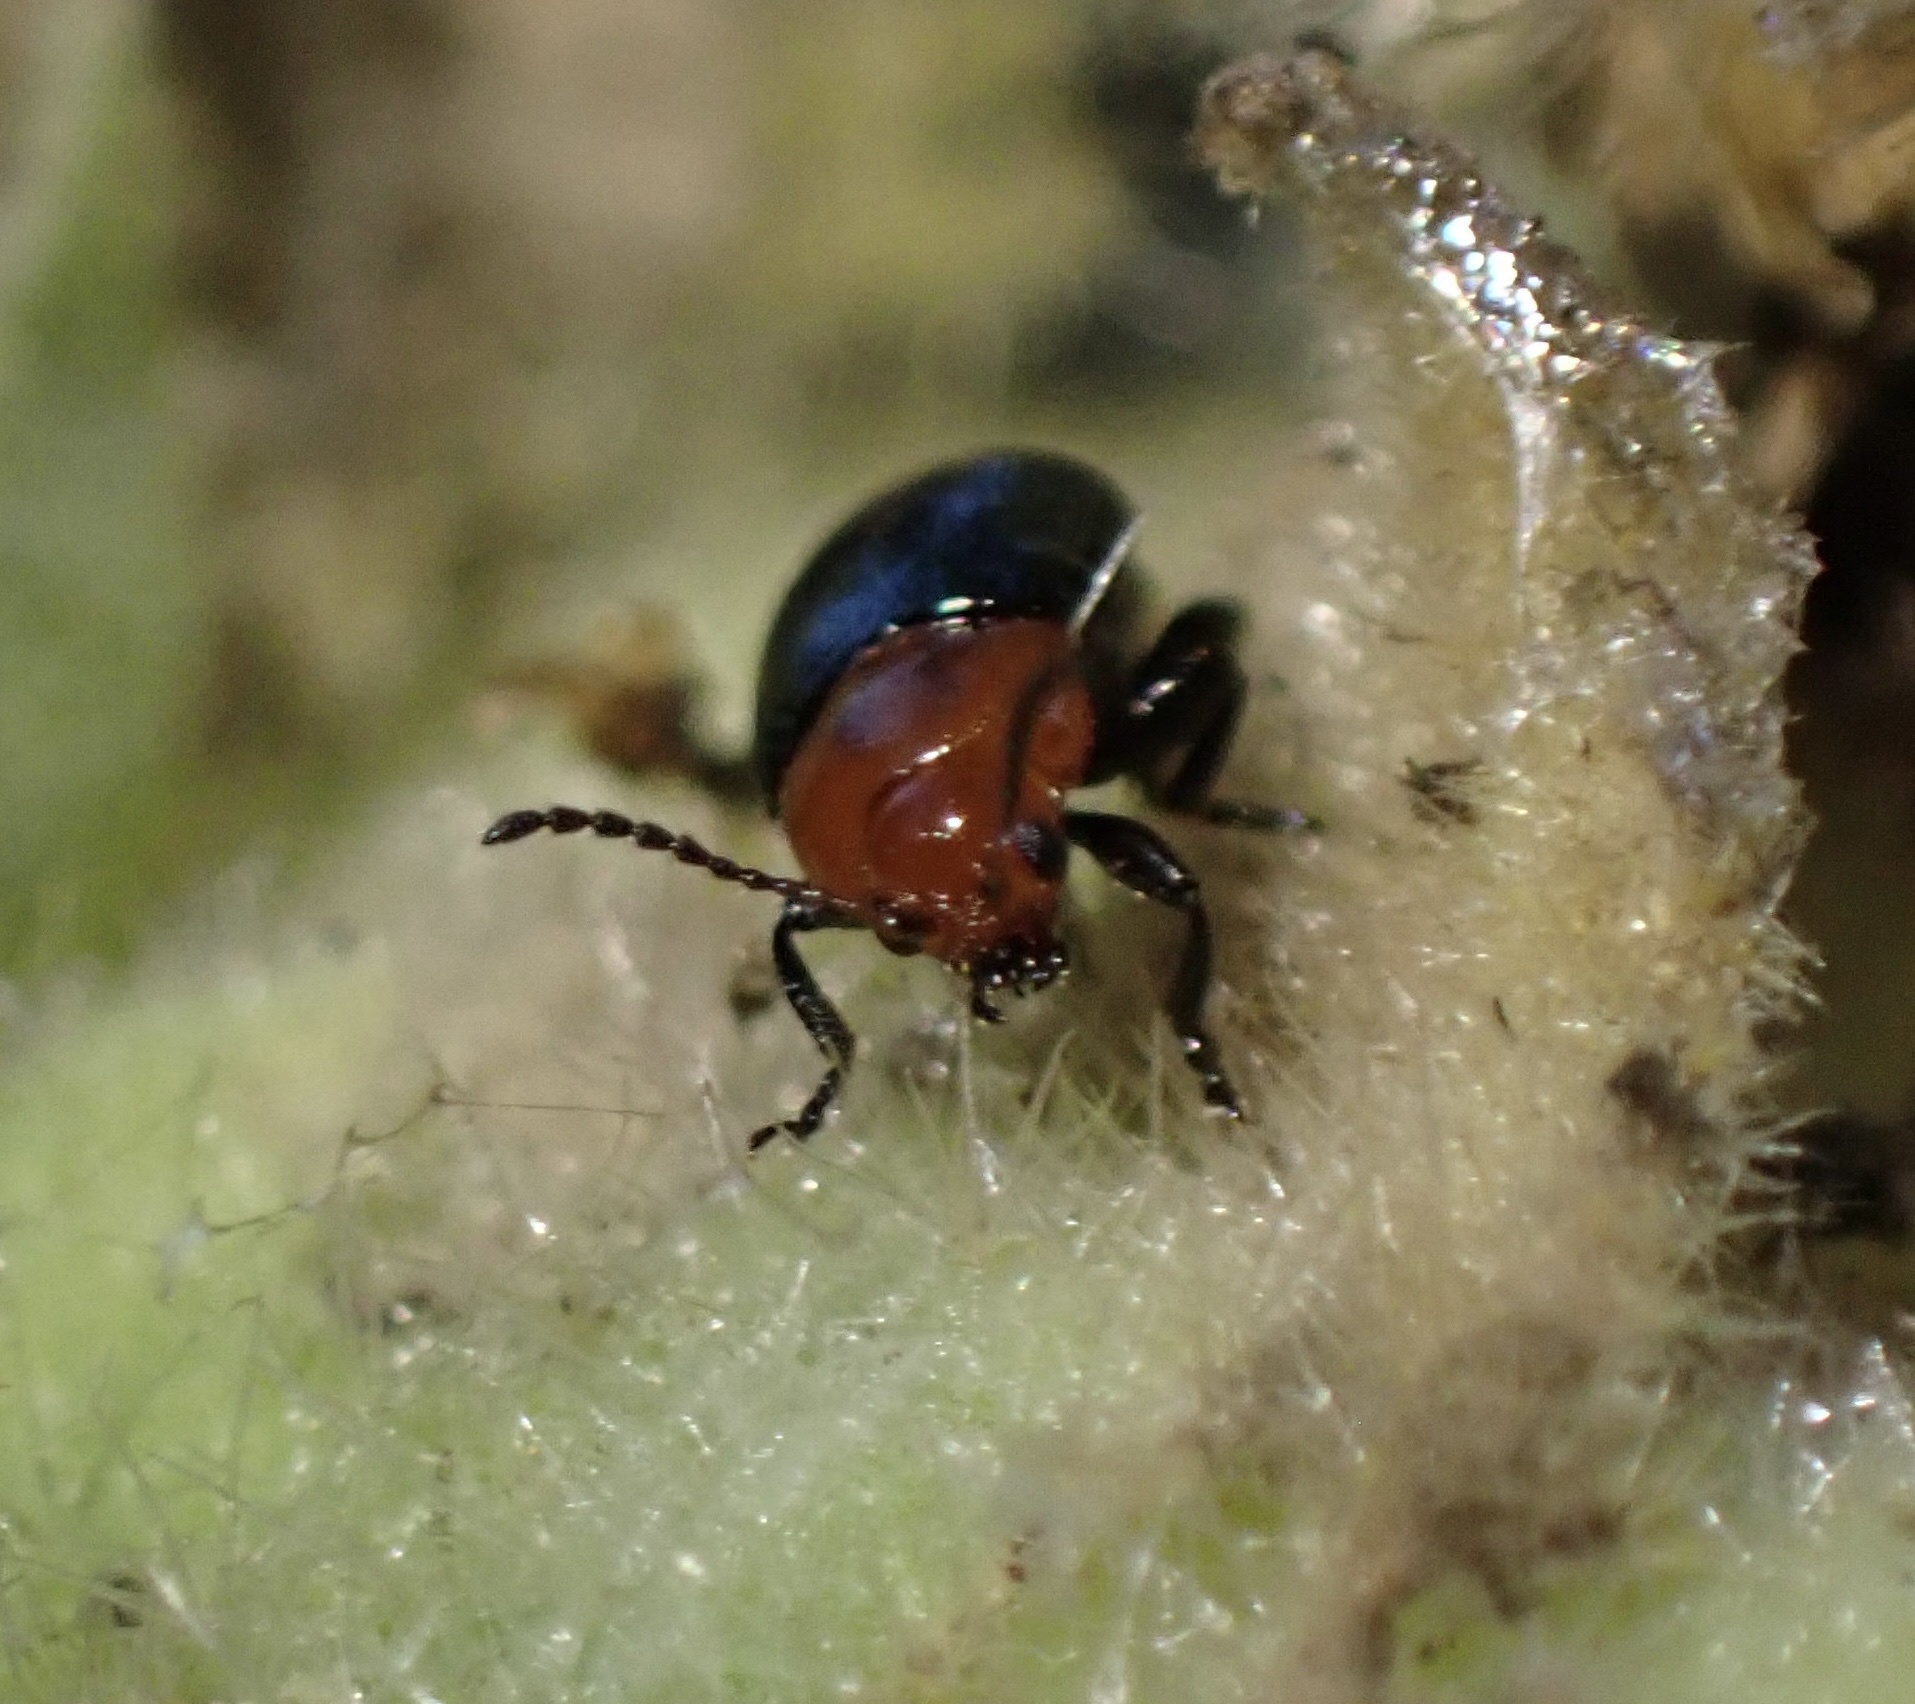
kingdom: Animalia
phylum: Arthropoda
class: Insecta
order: Coleoptera
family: Chrysomelidae
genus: Podagrica
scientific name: Podagrica fuscipes
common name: Mallow flea beetle
